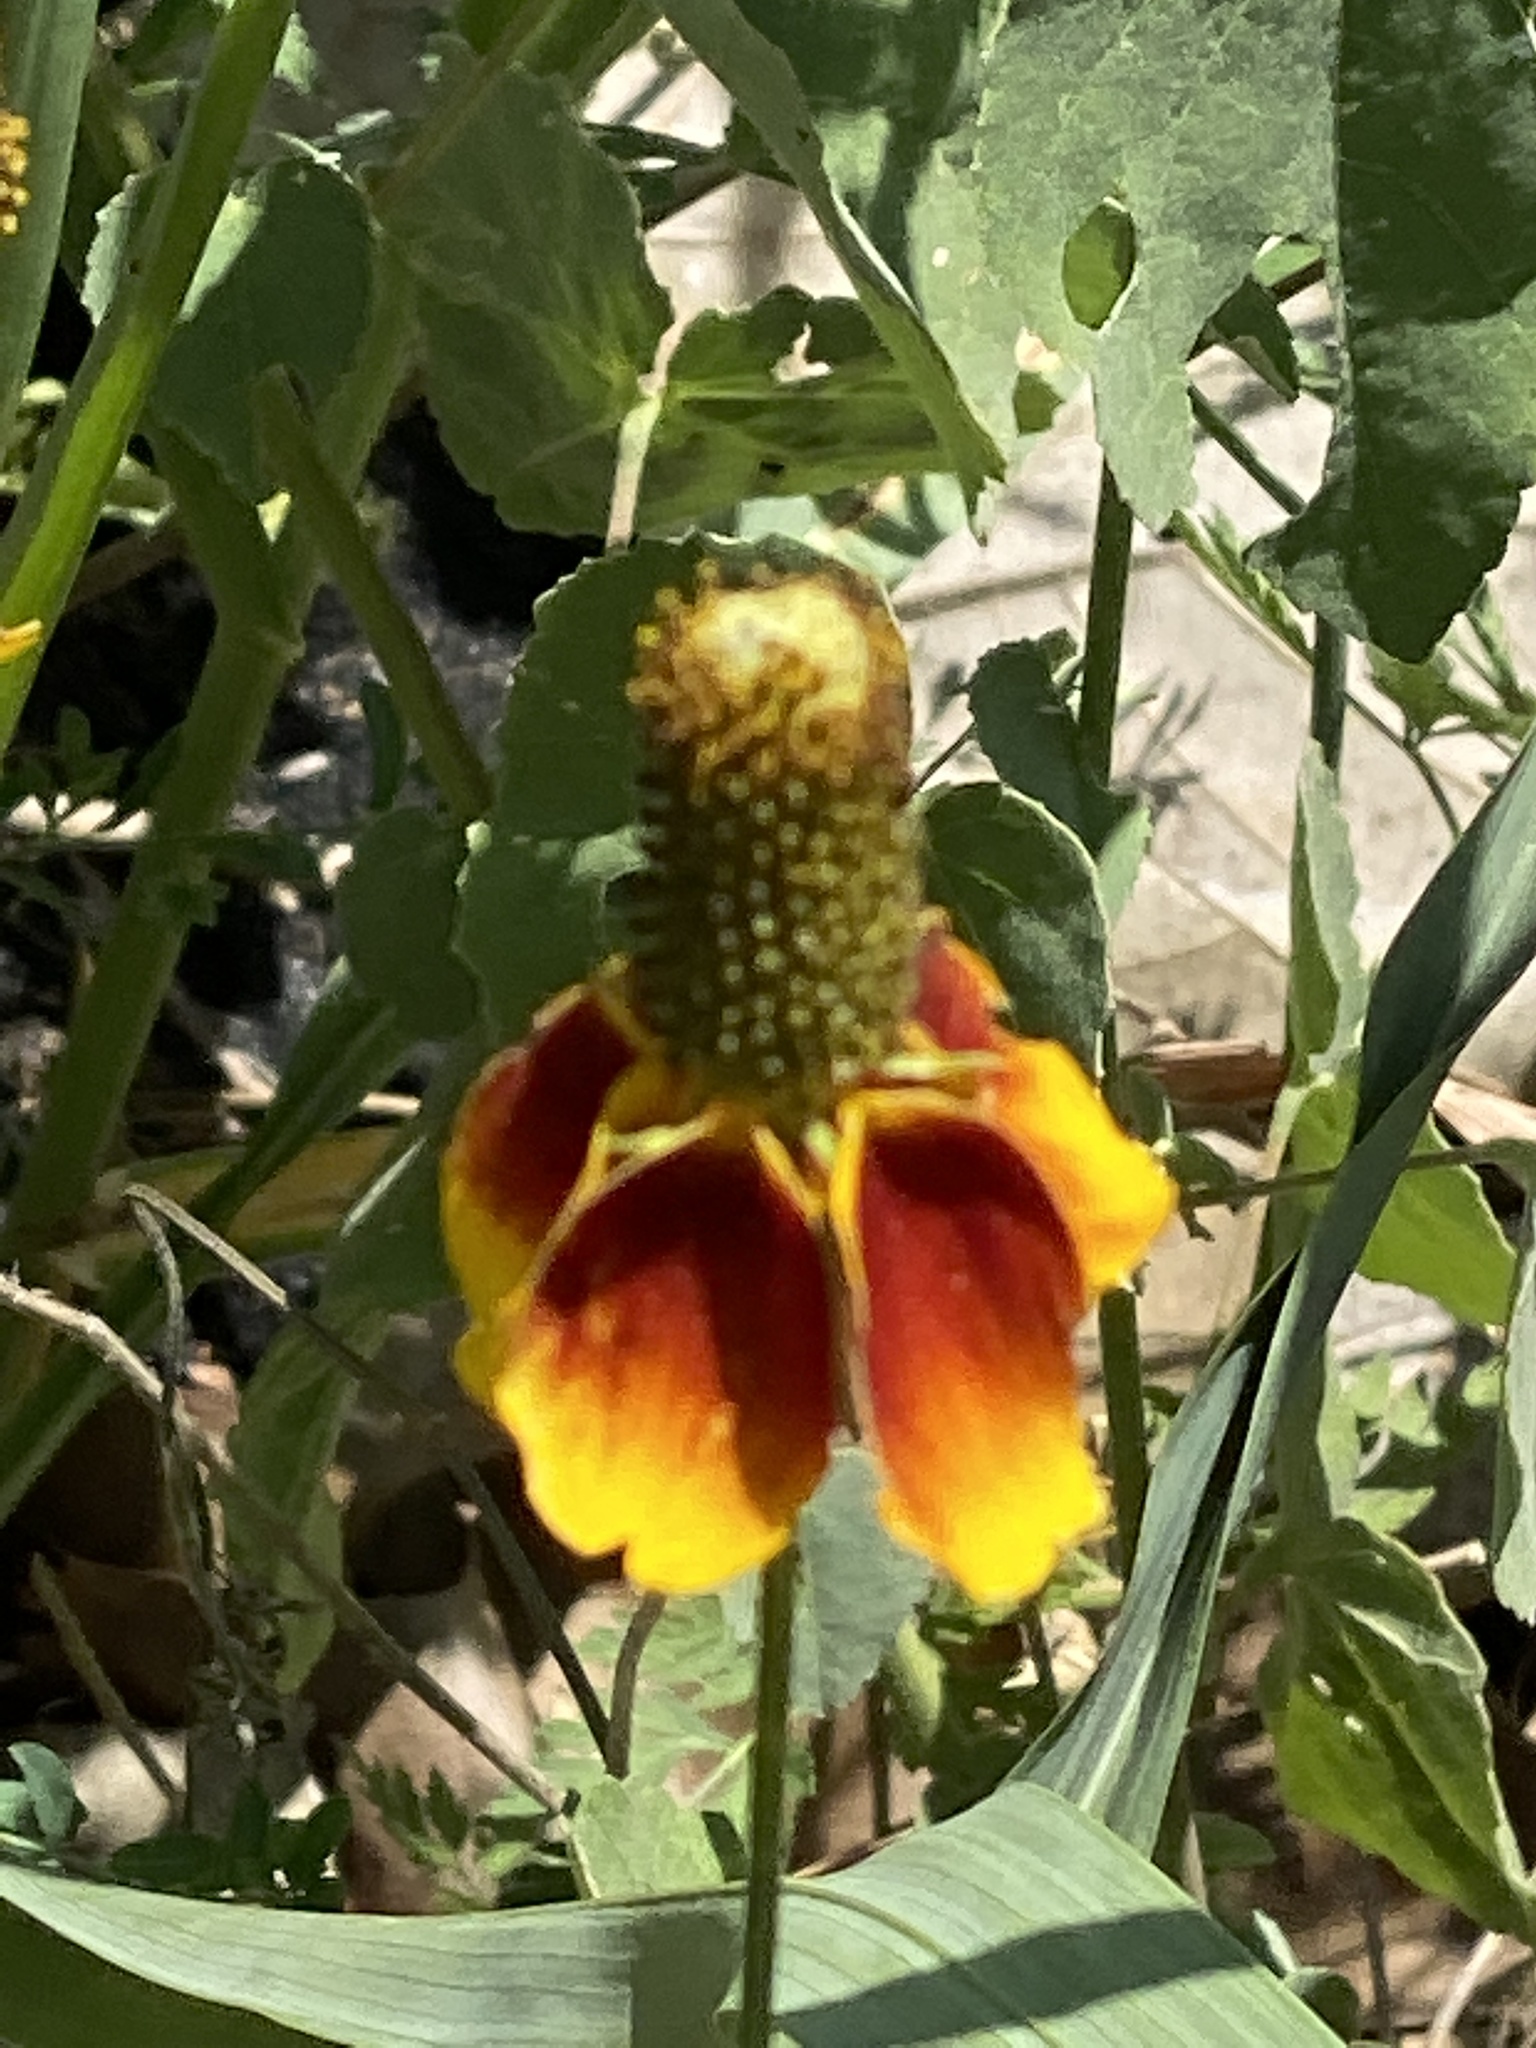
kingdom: Plantae
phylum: Tracheophyta
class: Magnoliopsida
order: Asterales
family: Asteraceae
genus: Ratibida
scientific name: Ratibida columnifera
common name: Prairie coneflower
